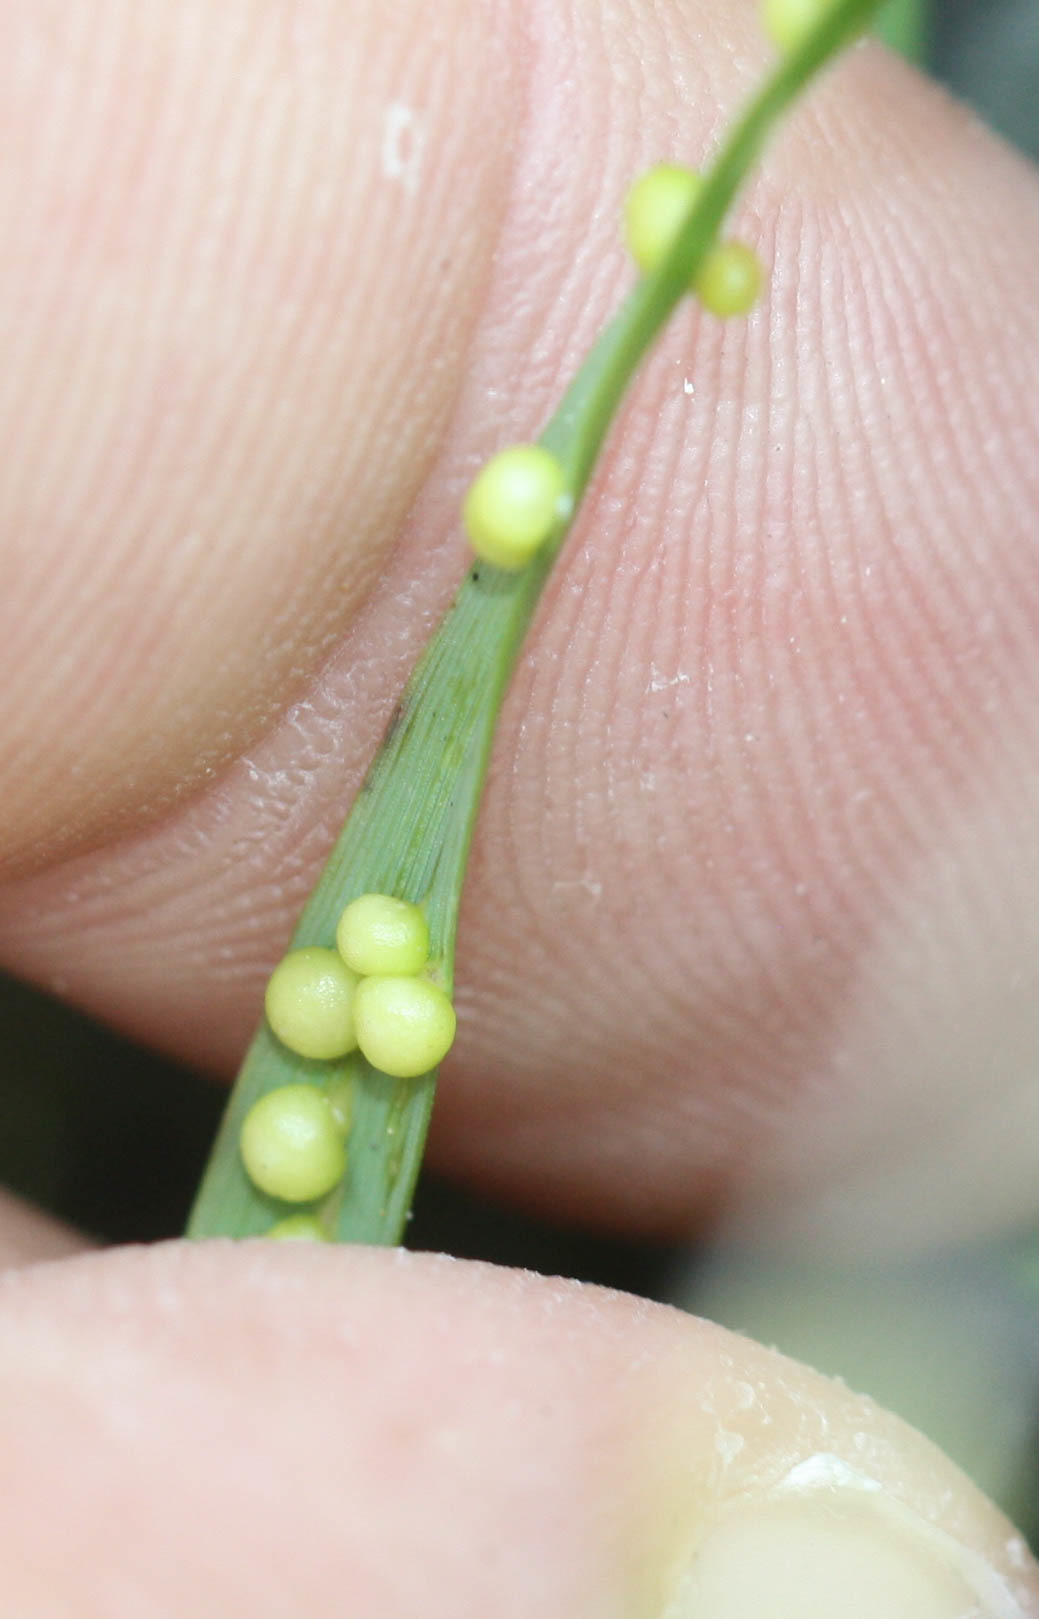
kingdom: Animalia
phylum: Nematoda
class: Chromadorea
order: Rhabditida
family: Anguinidae
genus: Subanguina
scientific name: Subanguina
